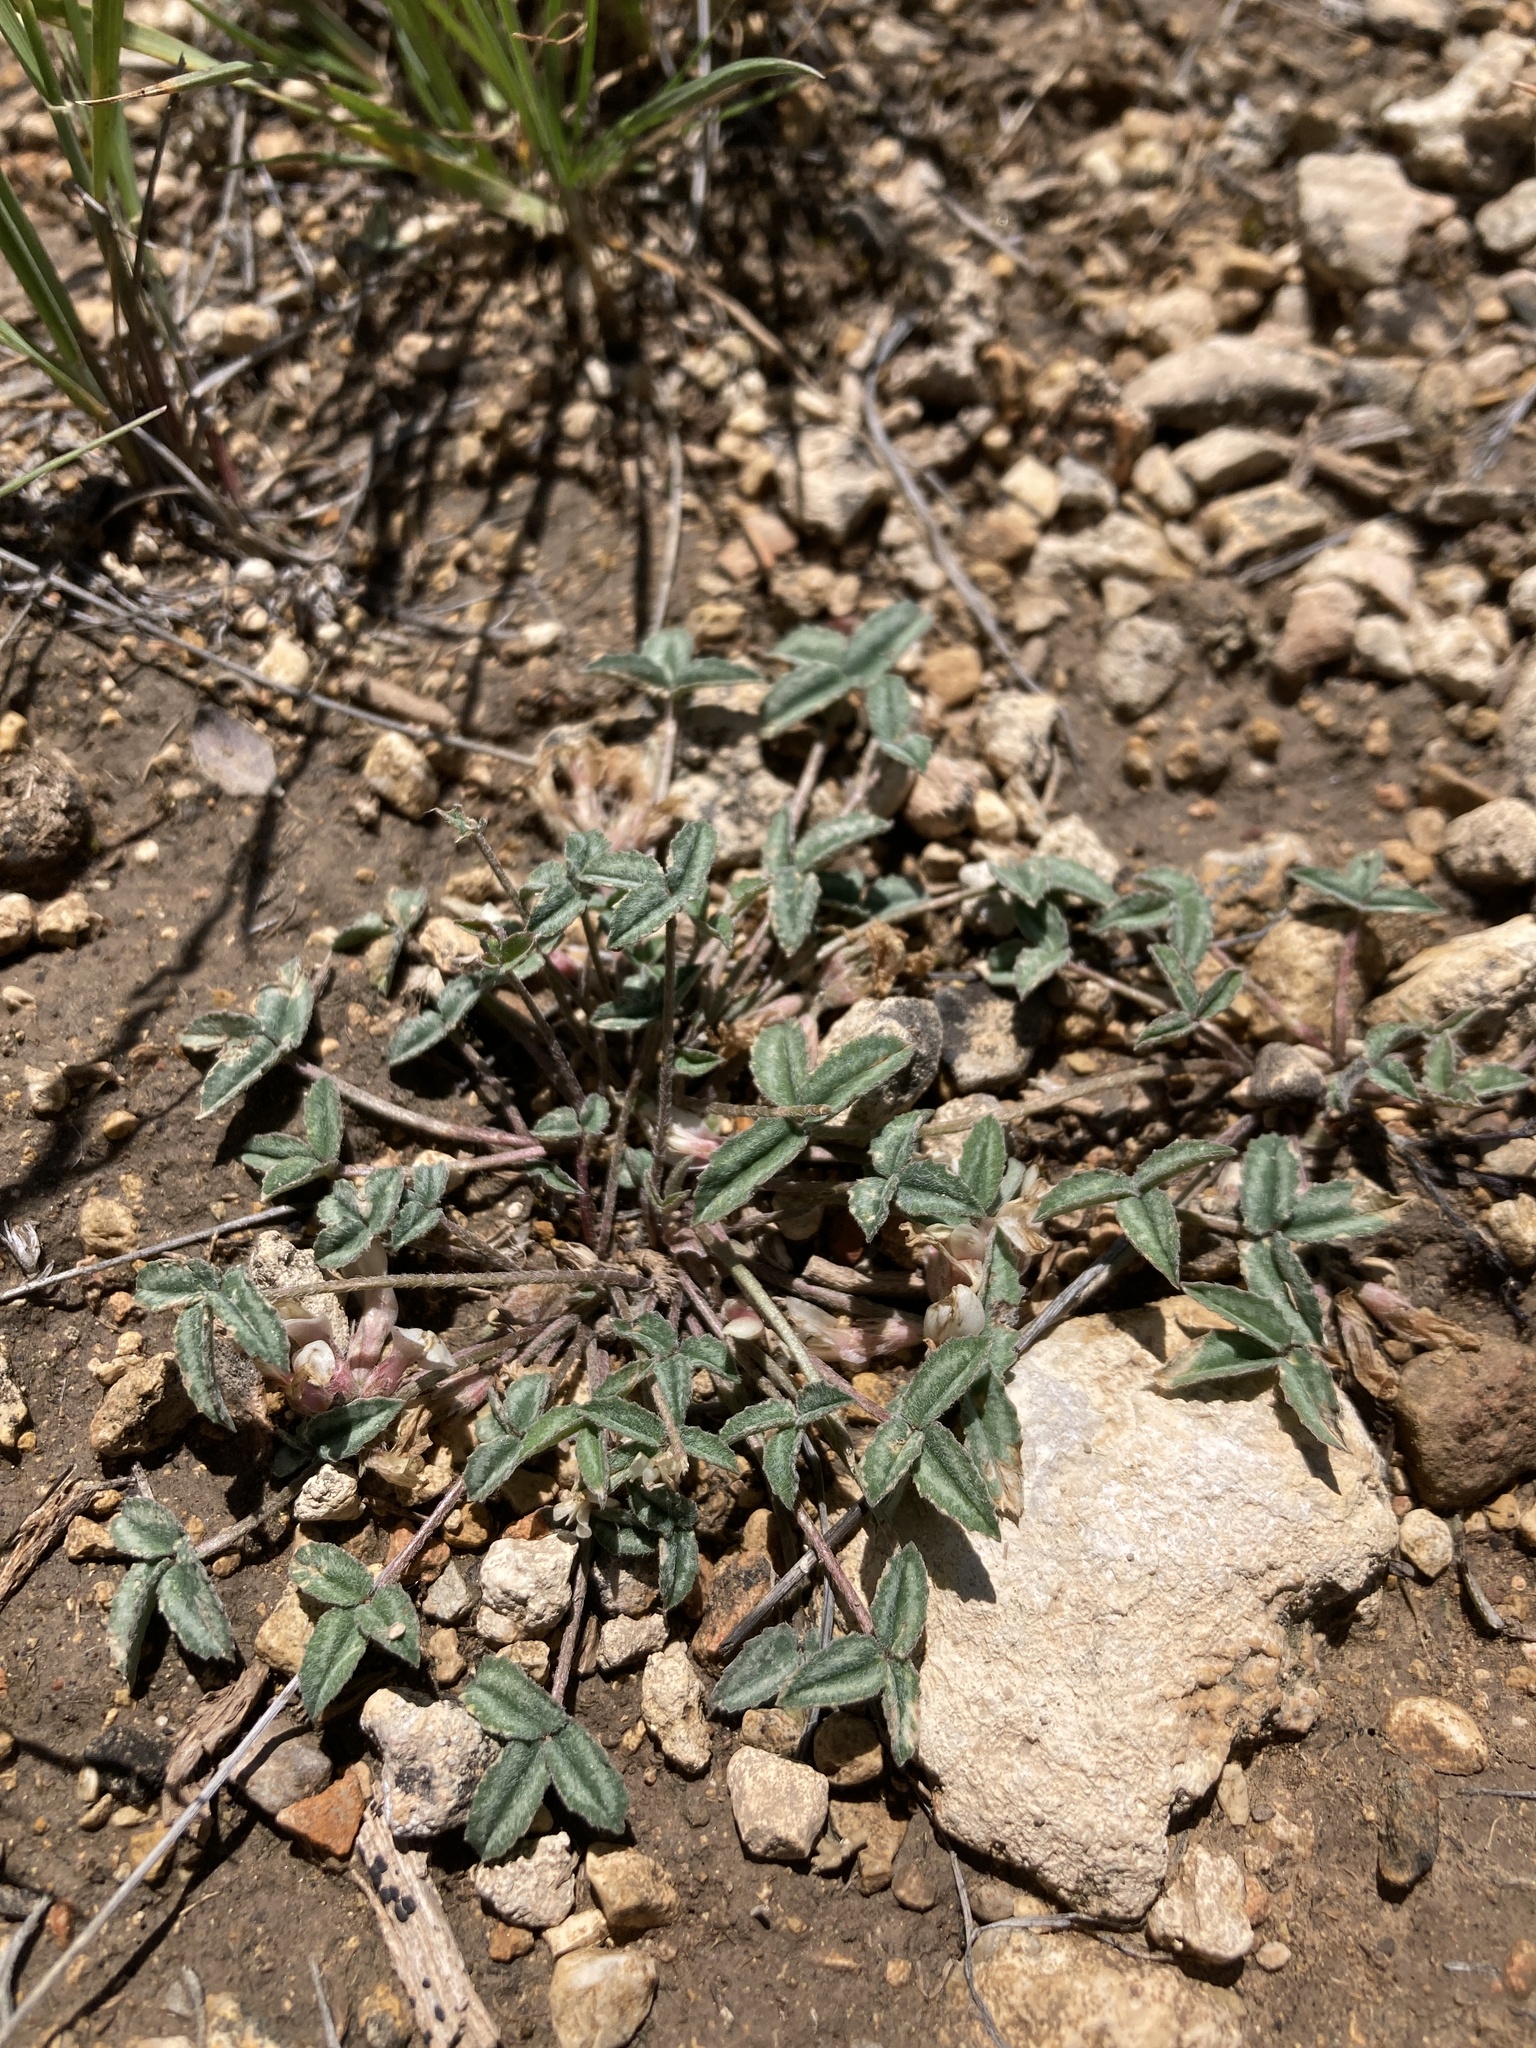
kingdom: Plantae
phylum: Tracheophyta
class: Magnoliopsida
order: Fabales
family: Fabaceae
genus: Trifolium
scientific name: Trifolium gymnocarpon
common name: Tufted clover
